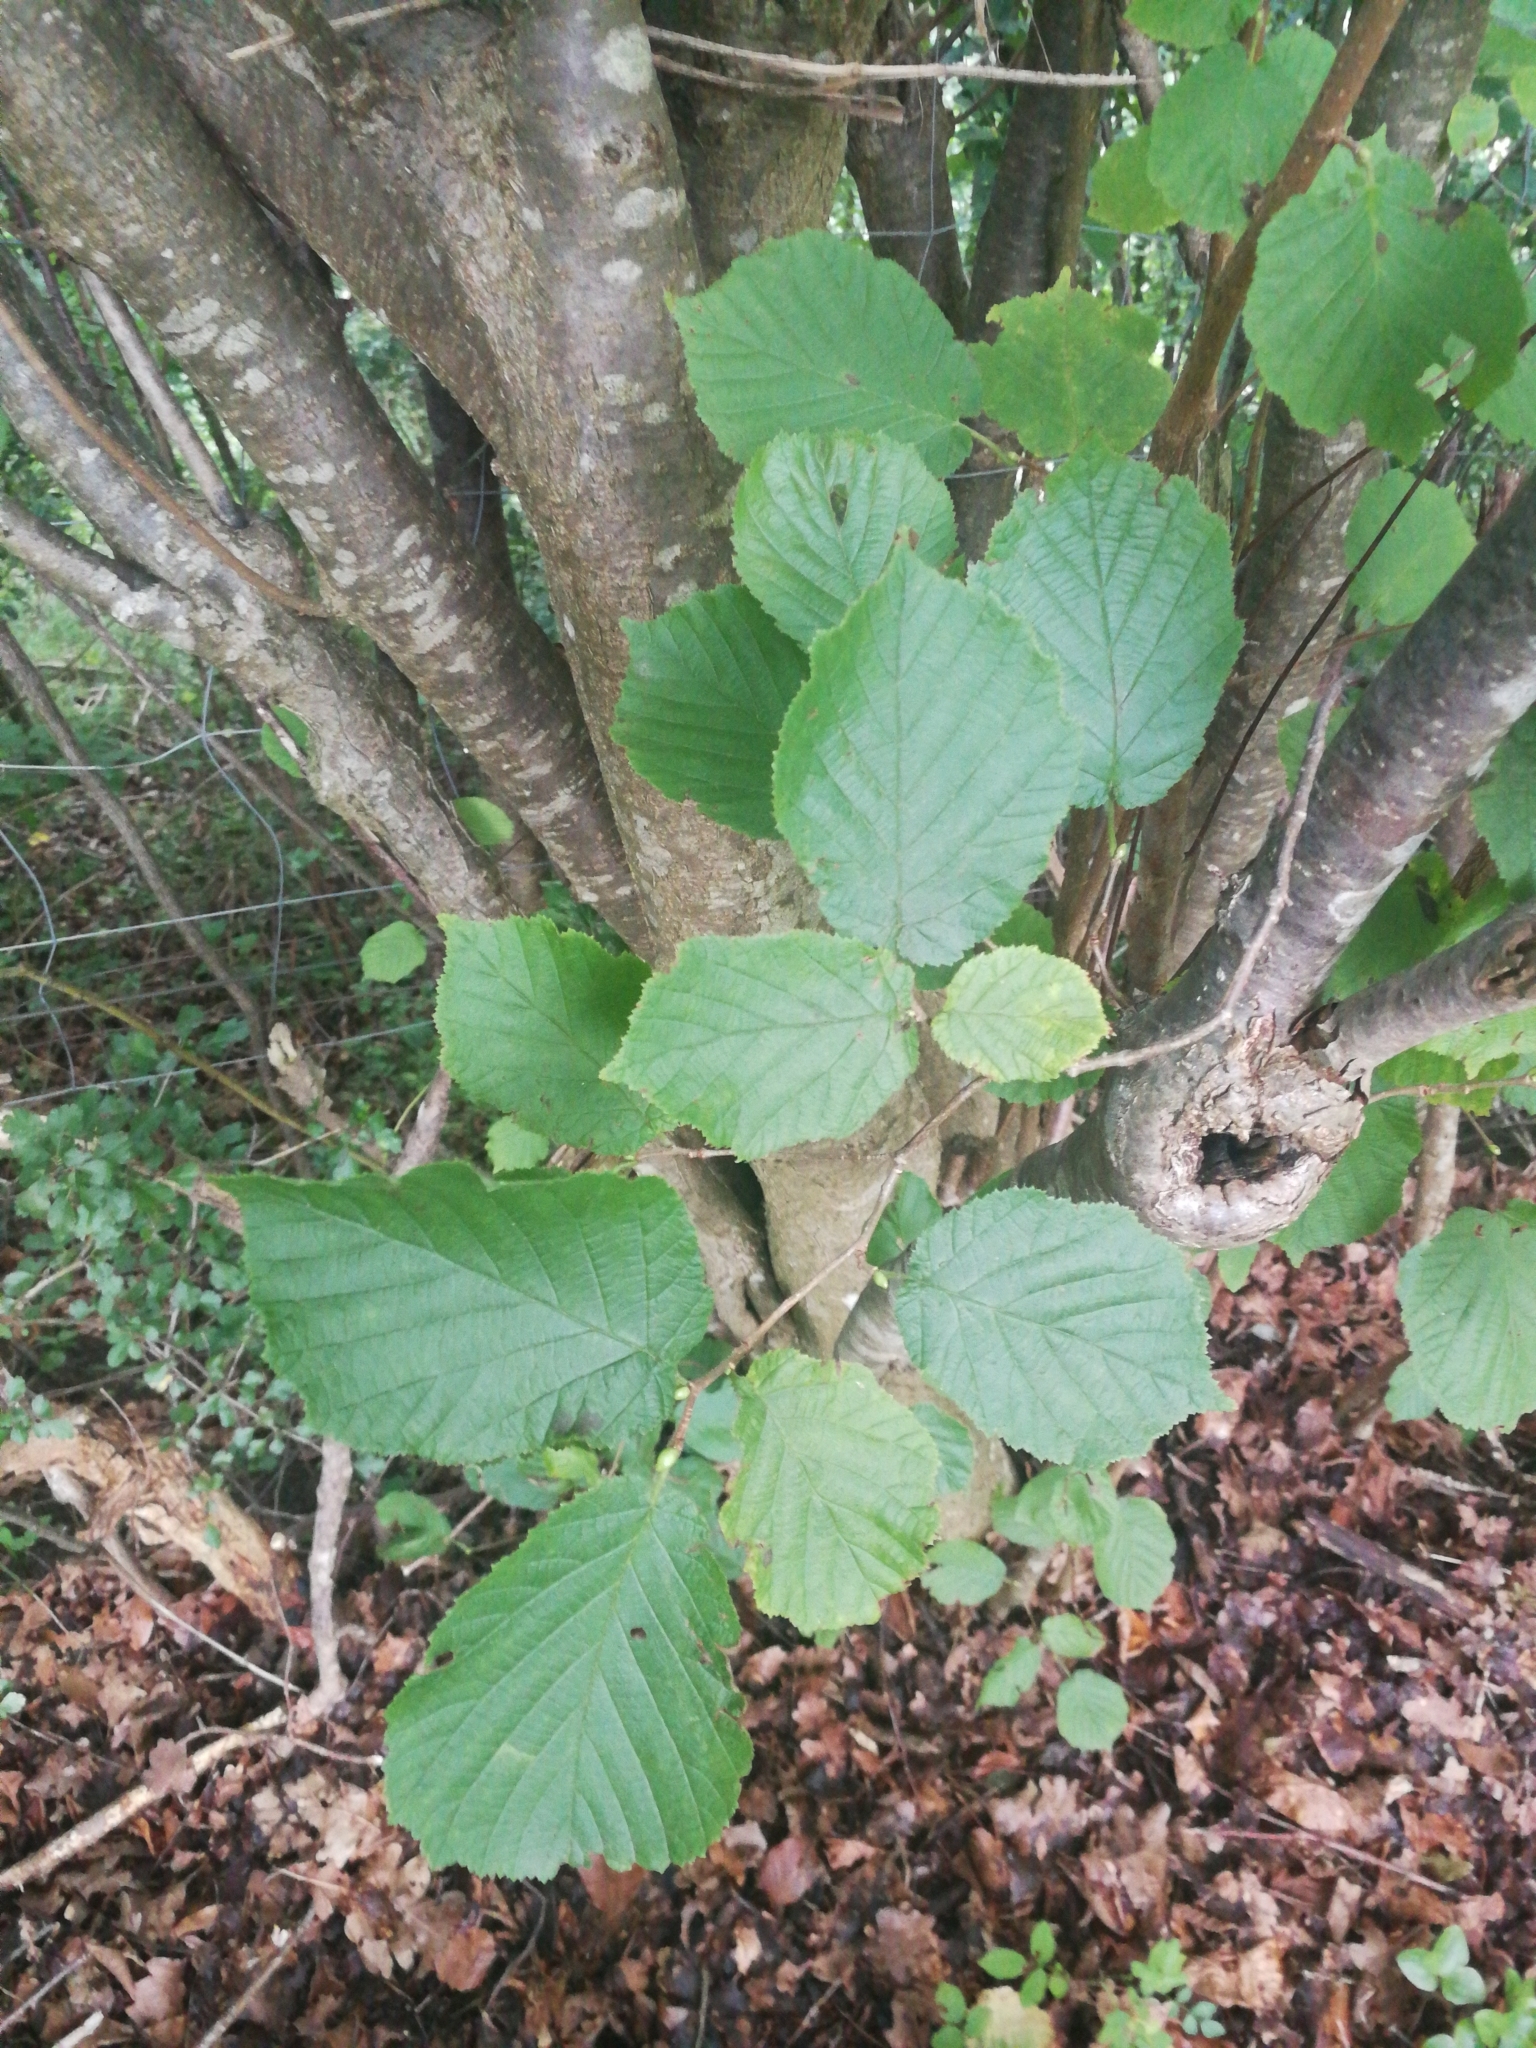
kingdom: Plantae
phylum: Tracheophyta
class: Magnoliopsida
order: Fagales
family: Betulaceae
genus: Corylus
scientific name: Corylus avellana
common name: European hazel
